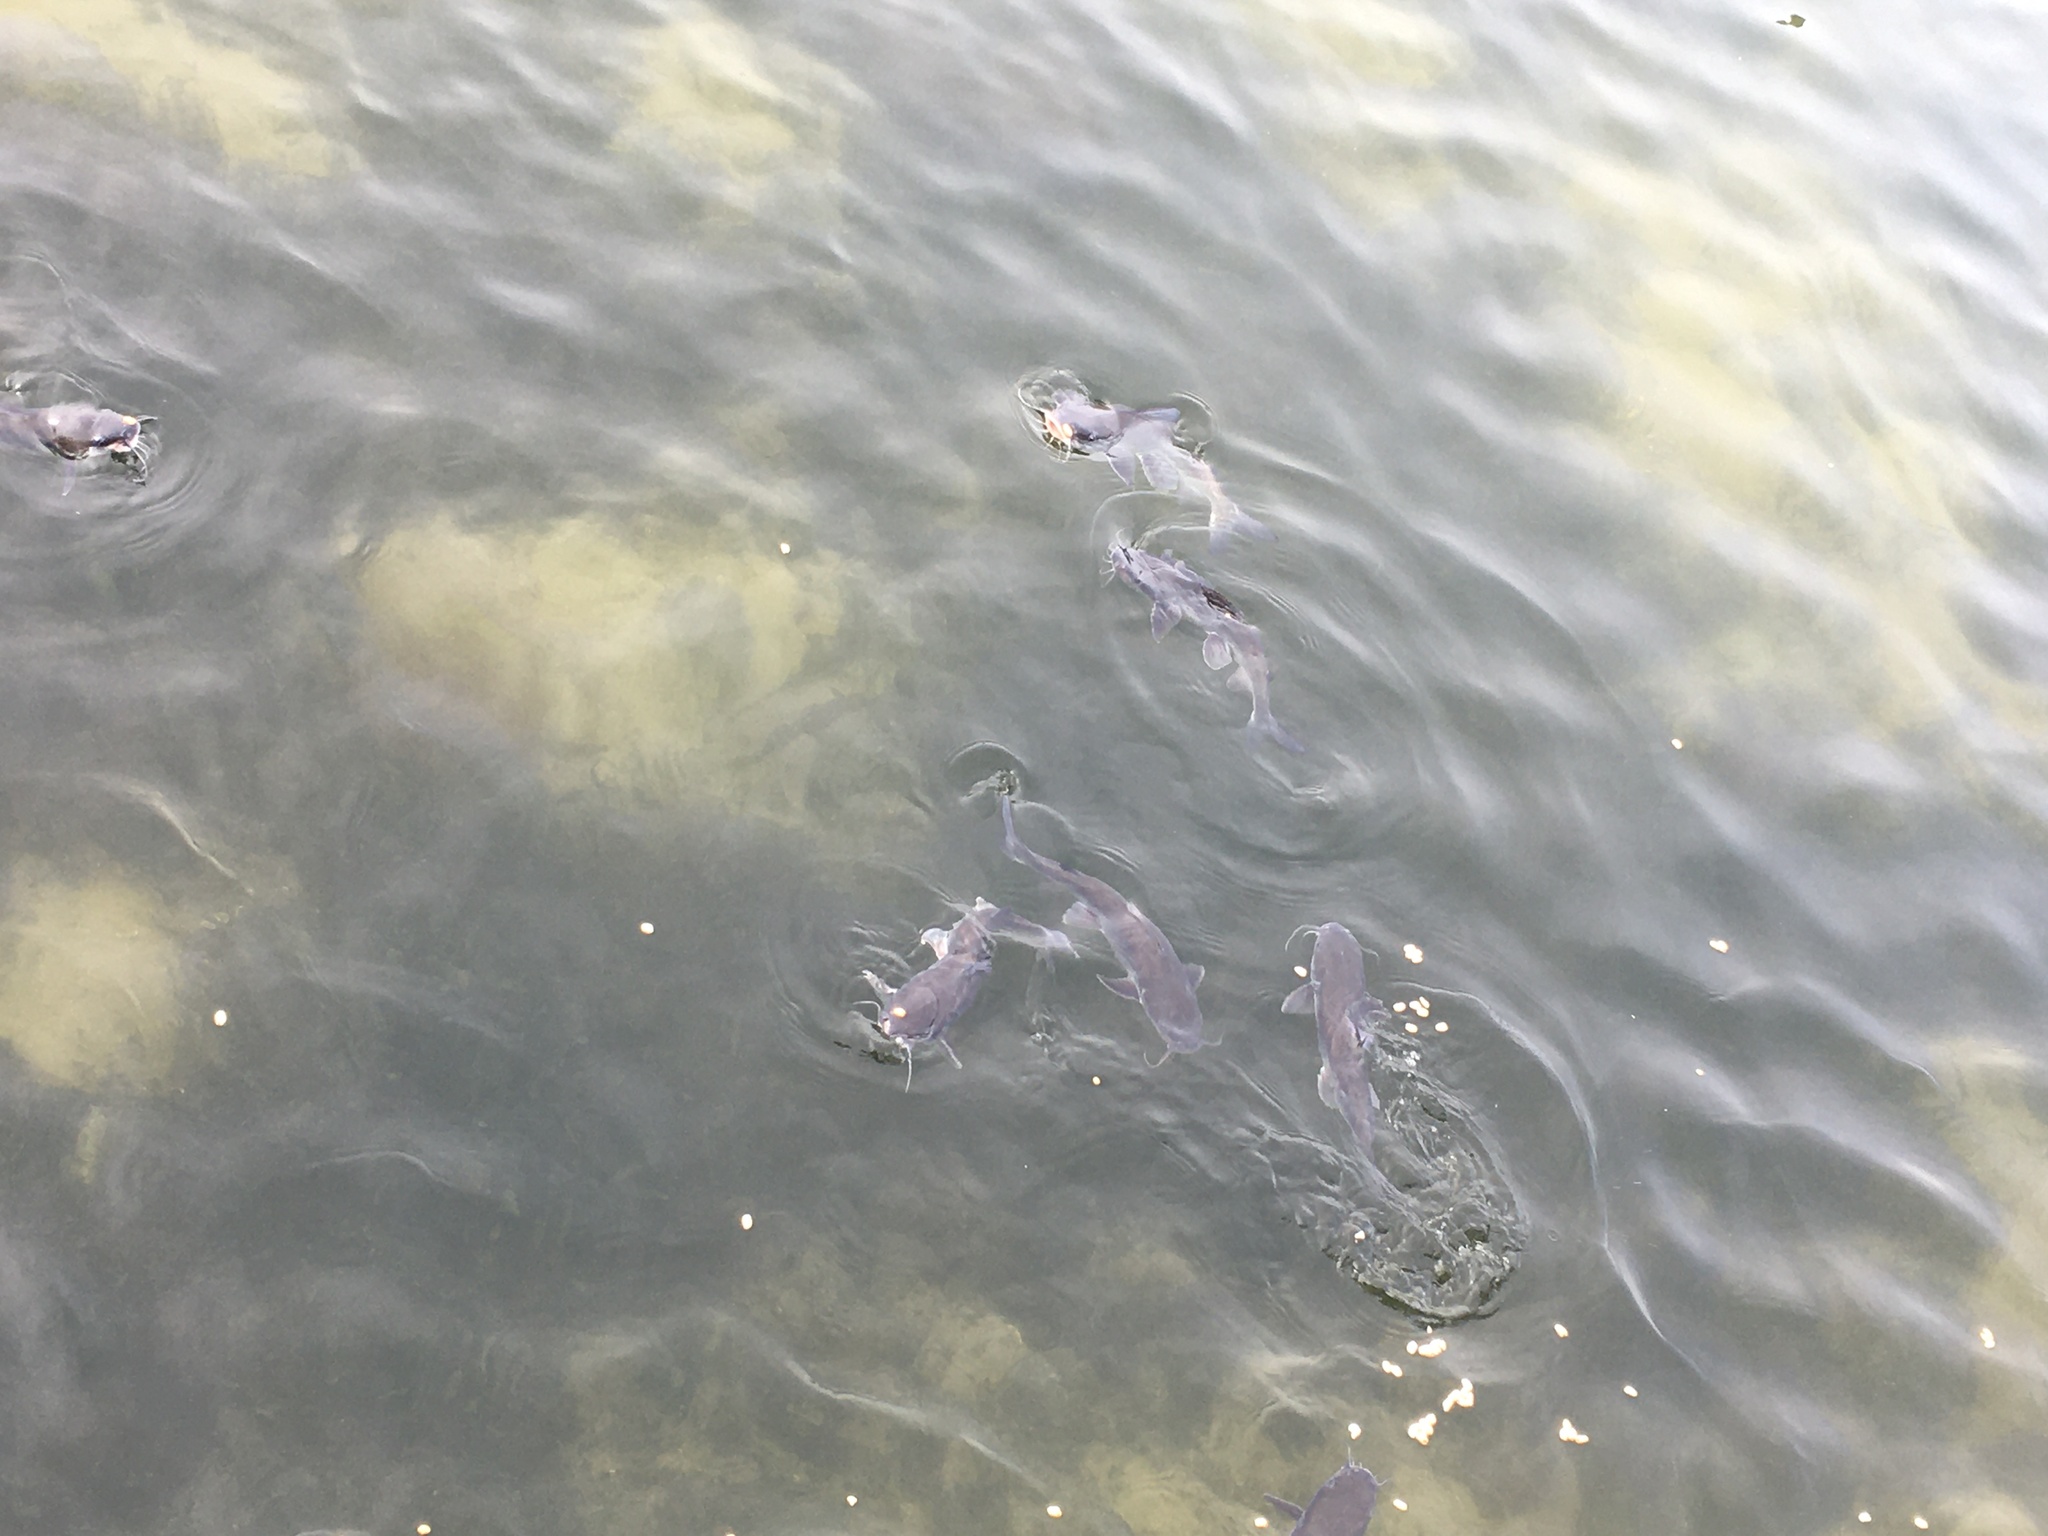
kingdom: Animalia
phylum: Chordata
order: Siluriformes
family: Ariidae
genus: Ariopsis
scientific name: Ariopsis felis
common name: Hardhead catfish
